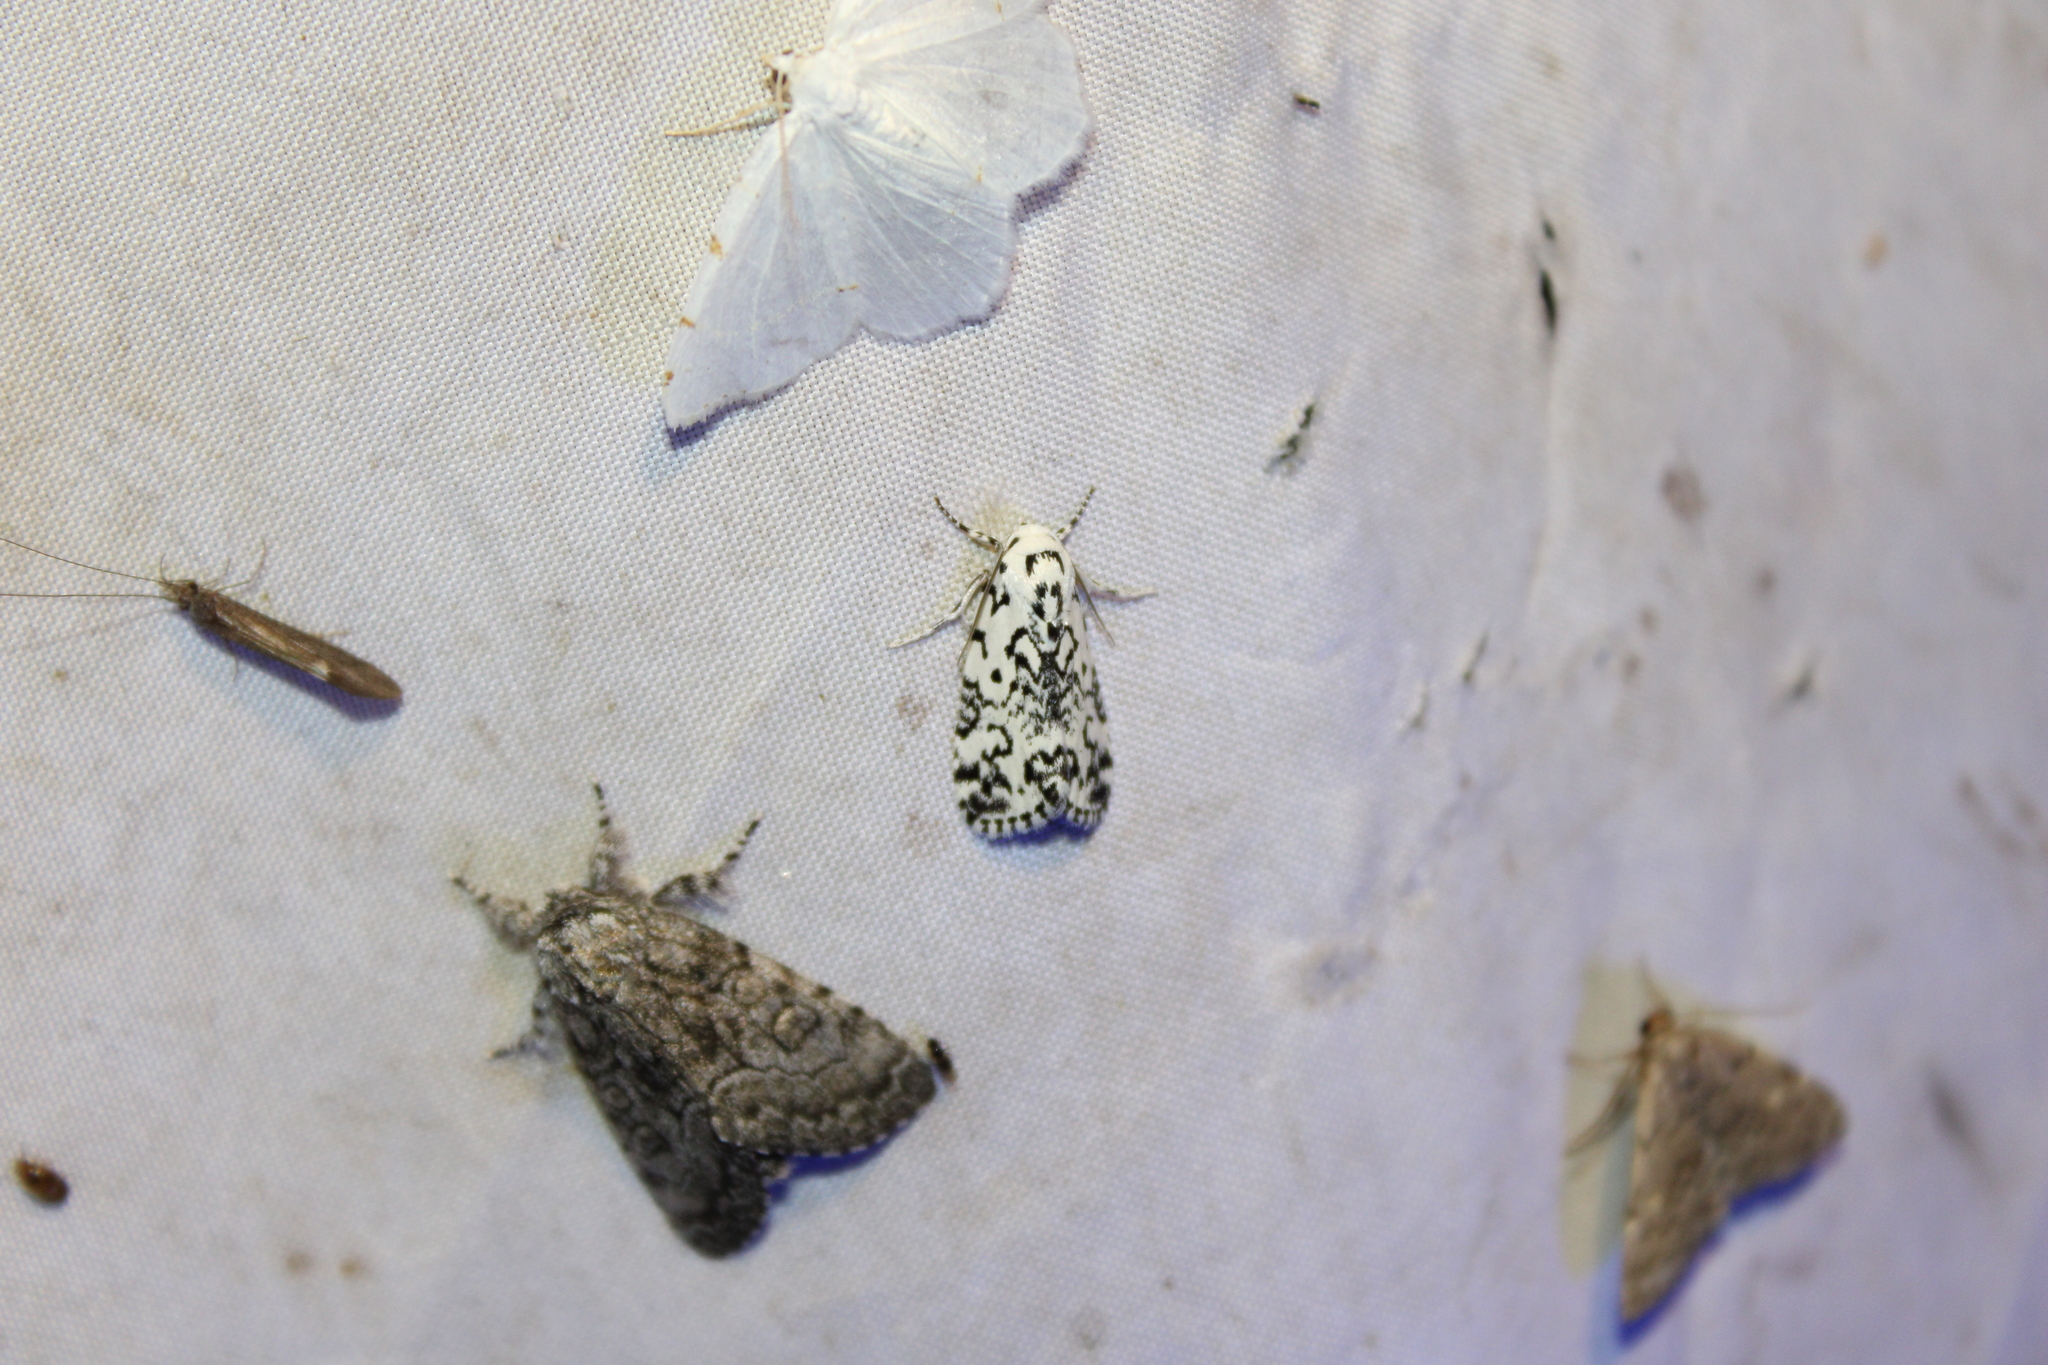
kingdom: Animalia
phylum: Arthropoda
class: Insecta
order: Lepidoptera
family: Noctuidae
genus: Polygrammate
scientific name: Polygrammate hebraeicum
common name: Hebrew moth
